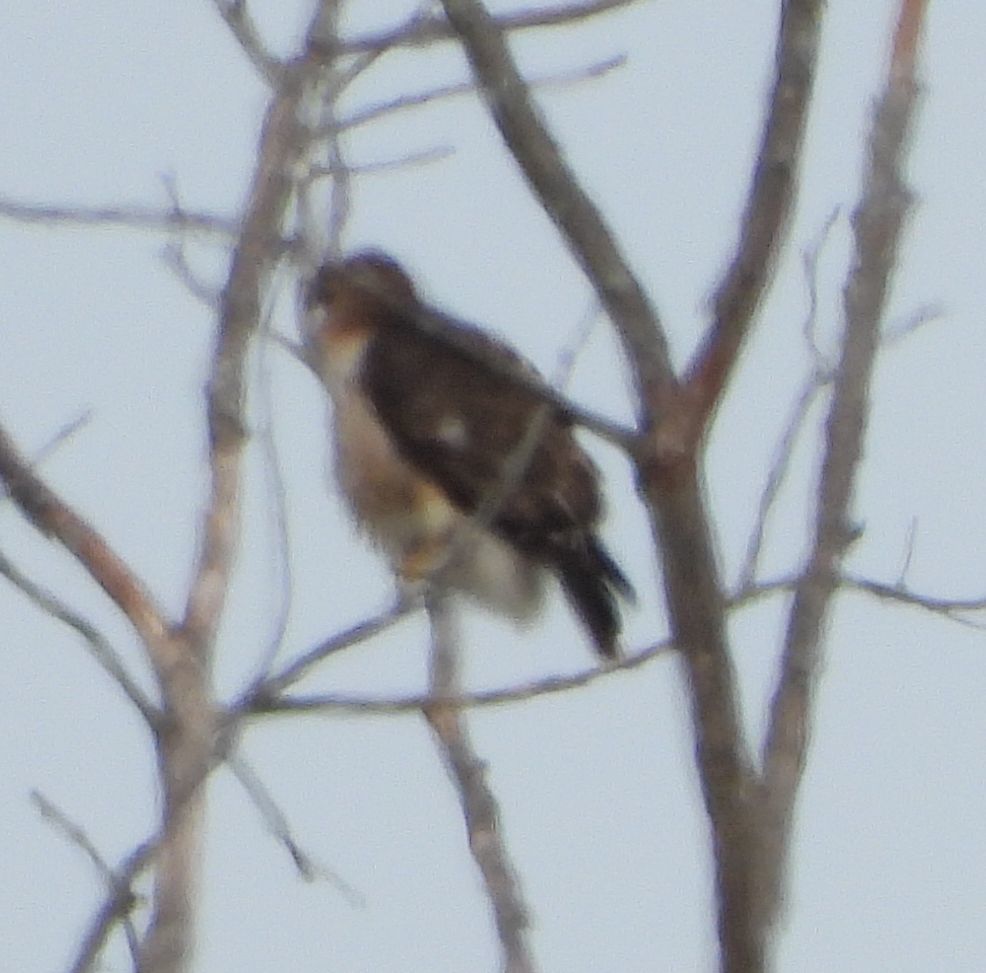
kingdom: Animalia
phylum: Chordata
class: Aves
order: Accipitriformes
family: Accipitridae
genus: Buteo
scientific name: Buteo jamaicensis
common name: Red-tailed hawk
